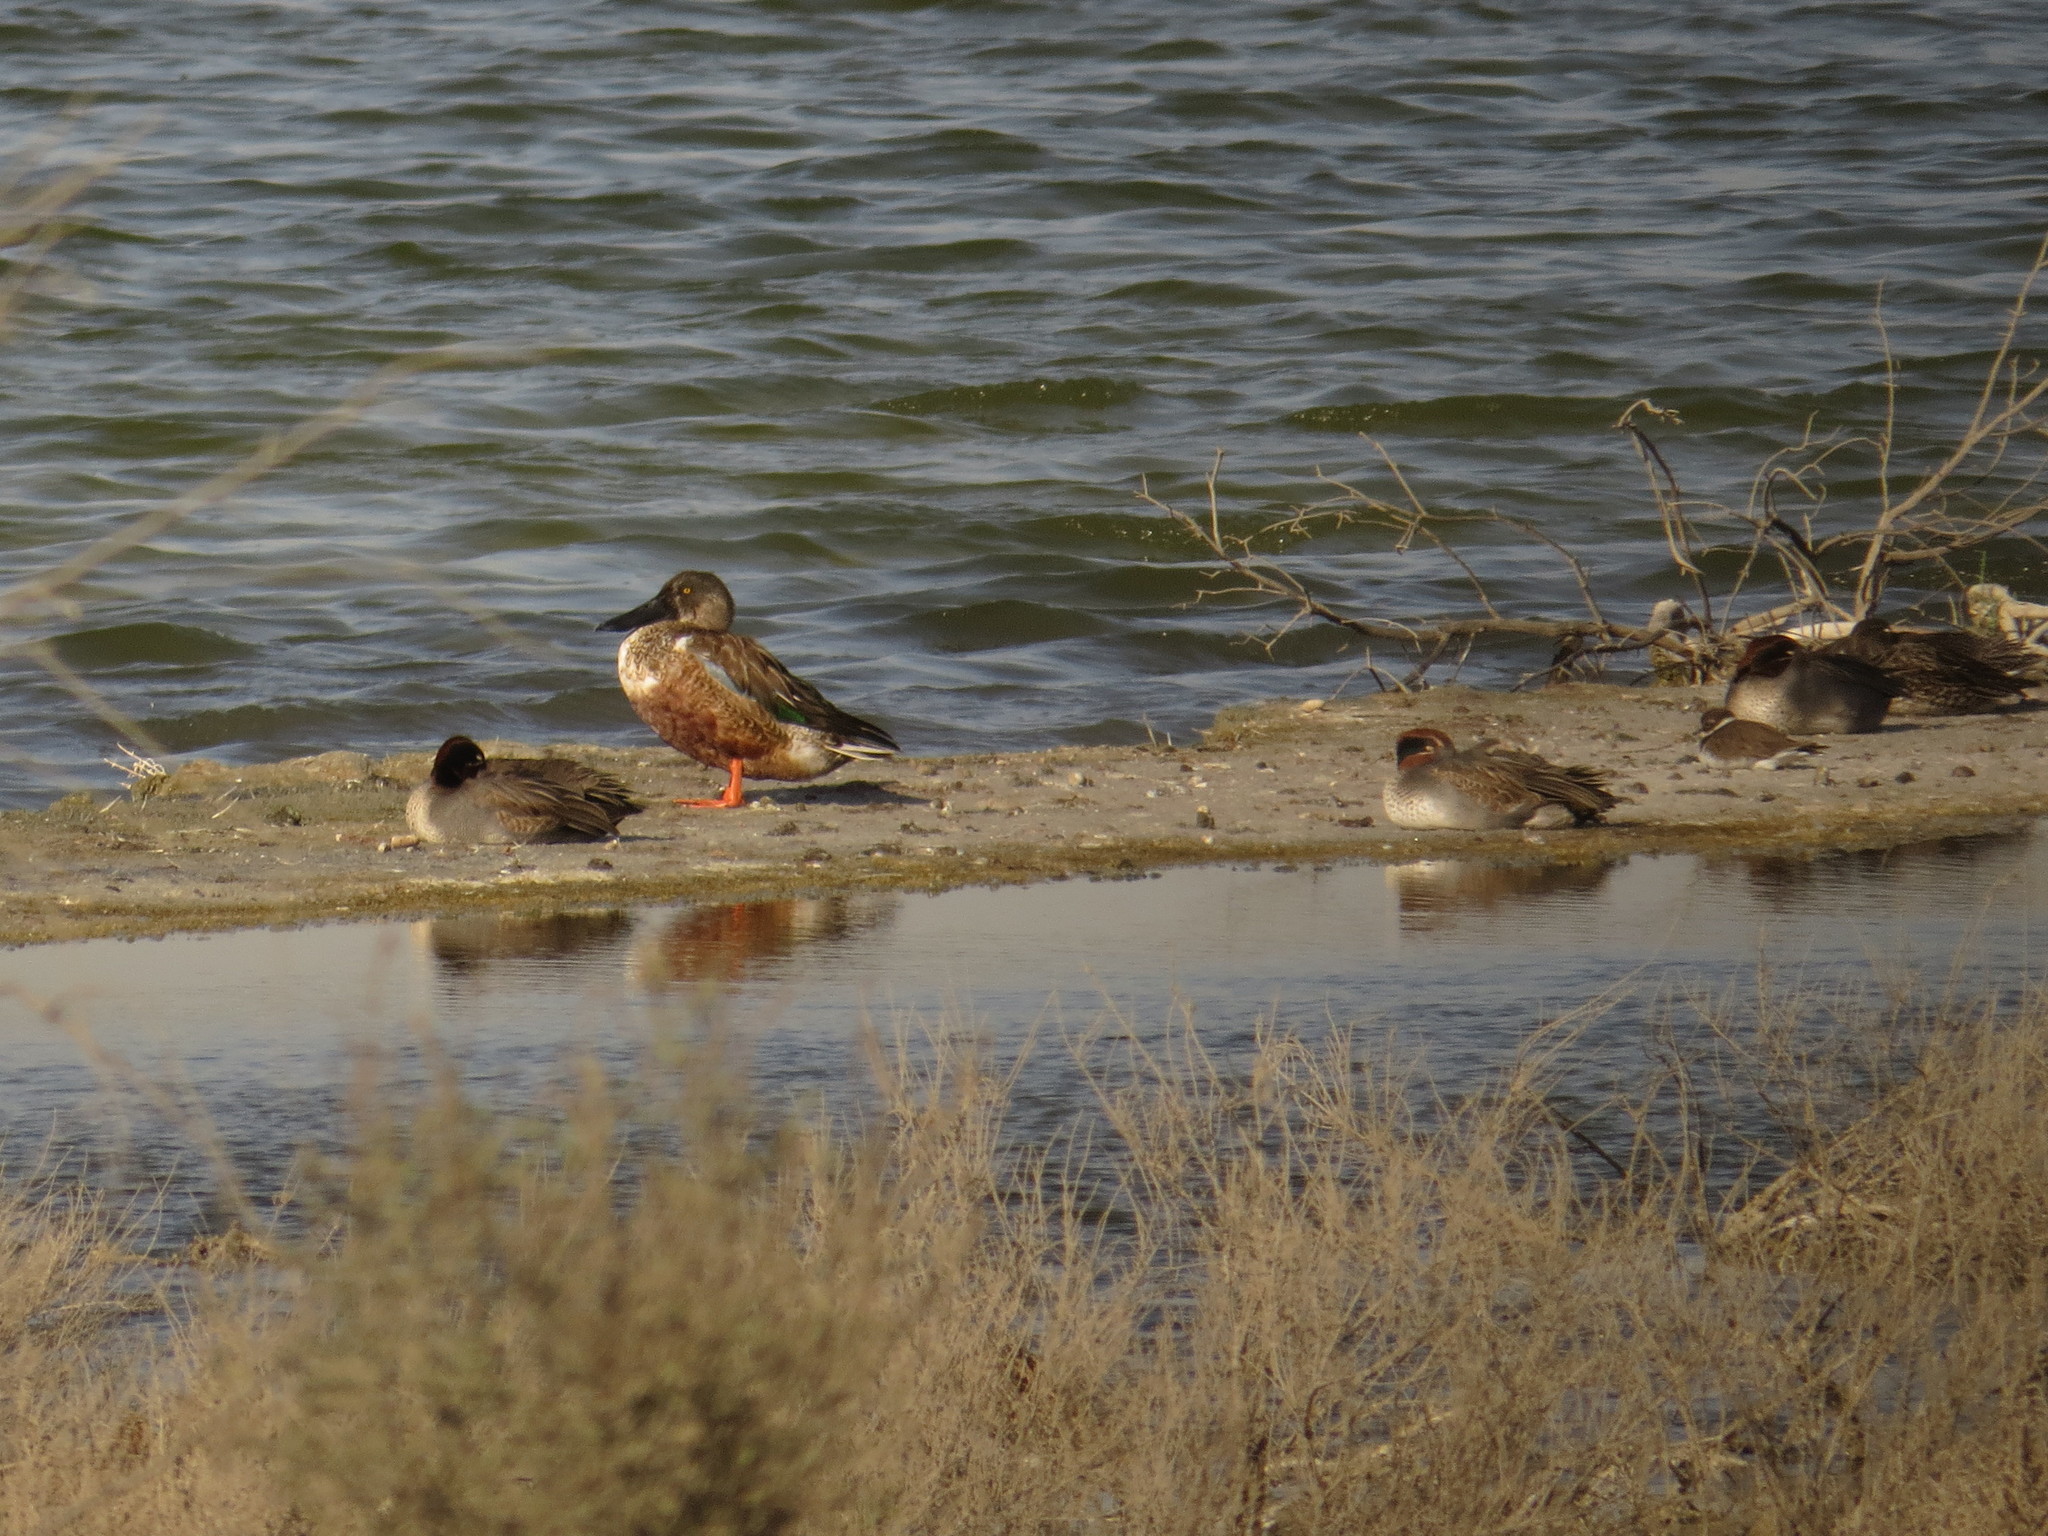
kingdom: Animalia
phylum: Chordata
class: Aves
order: Charadriiformes
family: Charadriidae
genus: Charadrius
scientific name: Charadrius hiaticula
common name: Common ringed plover
